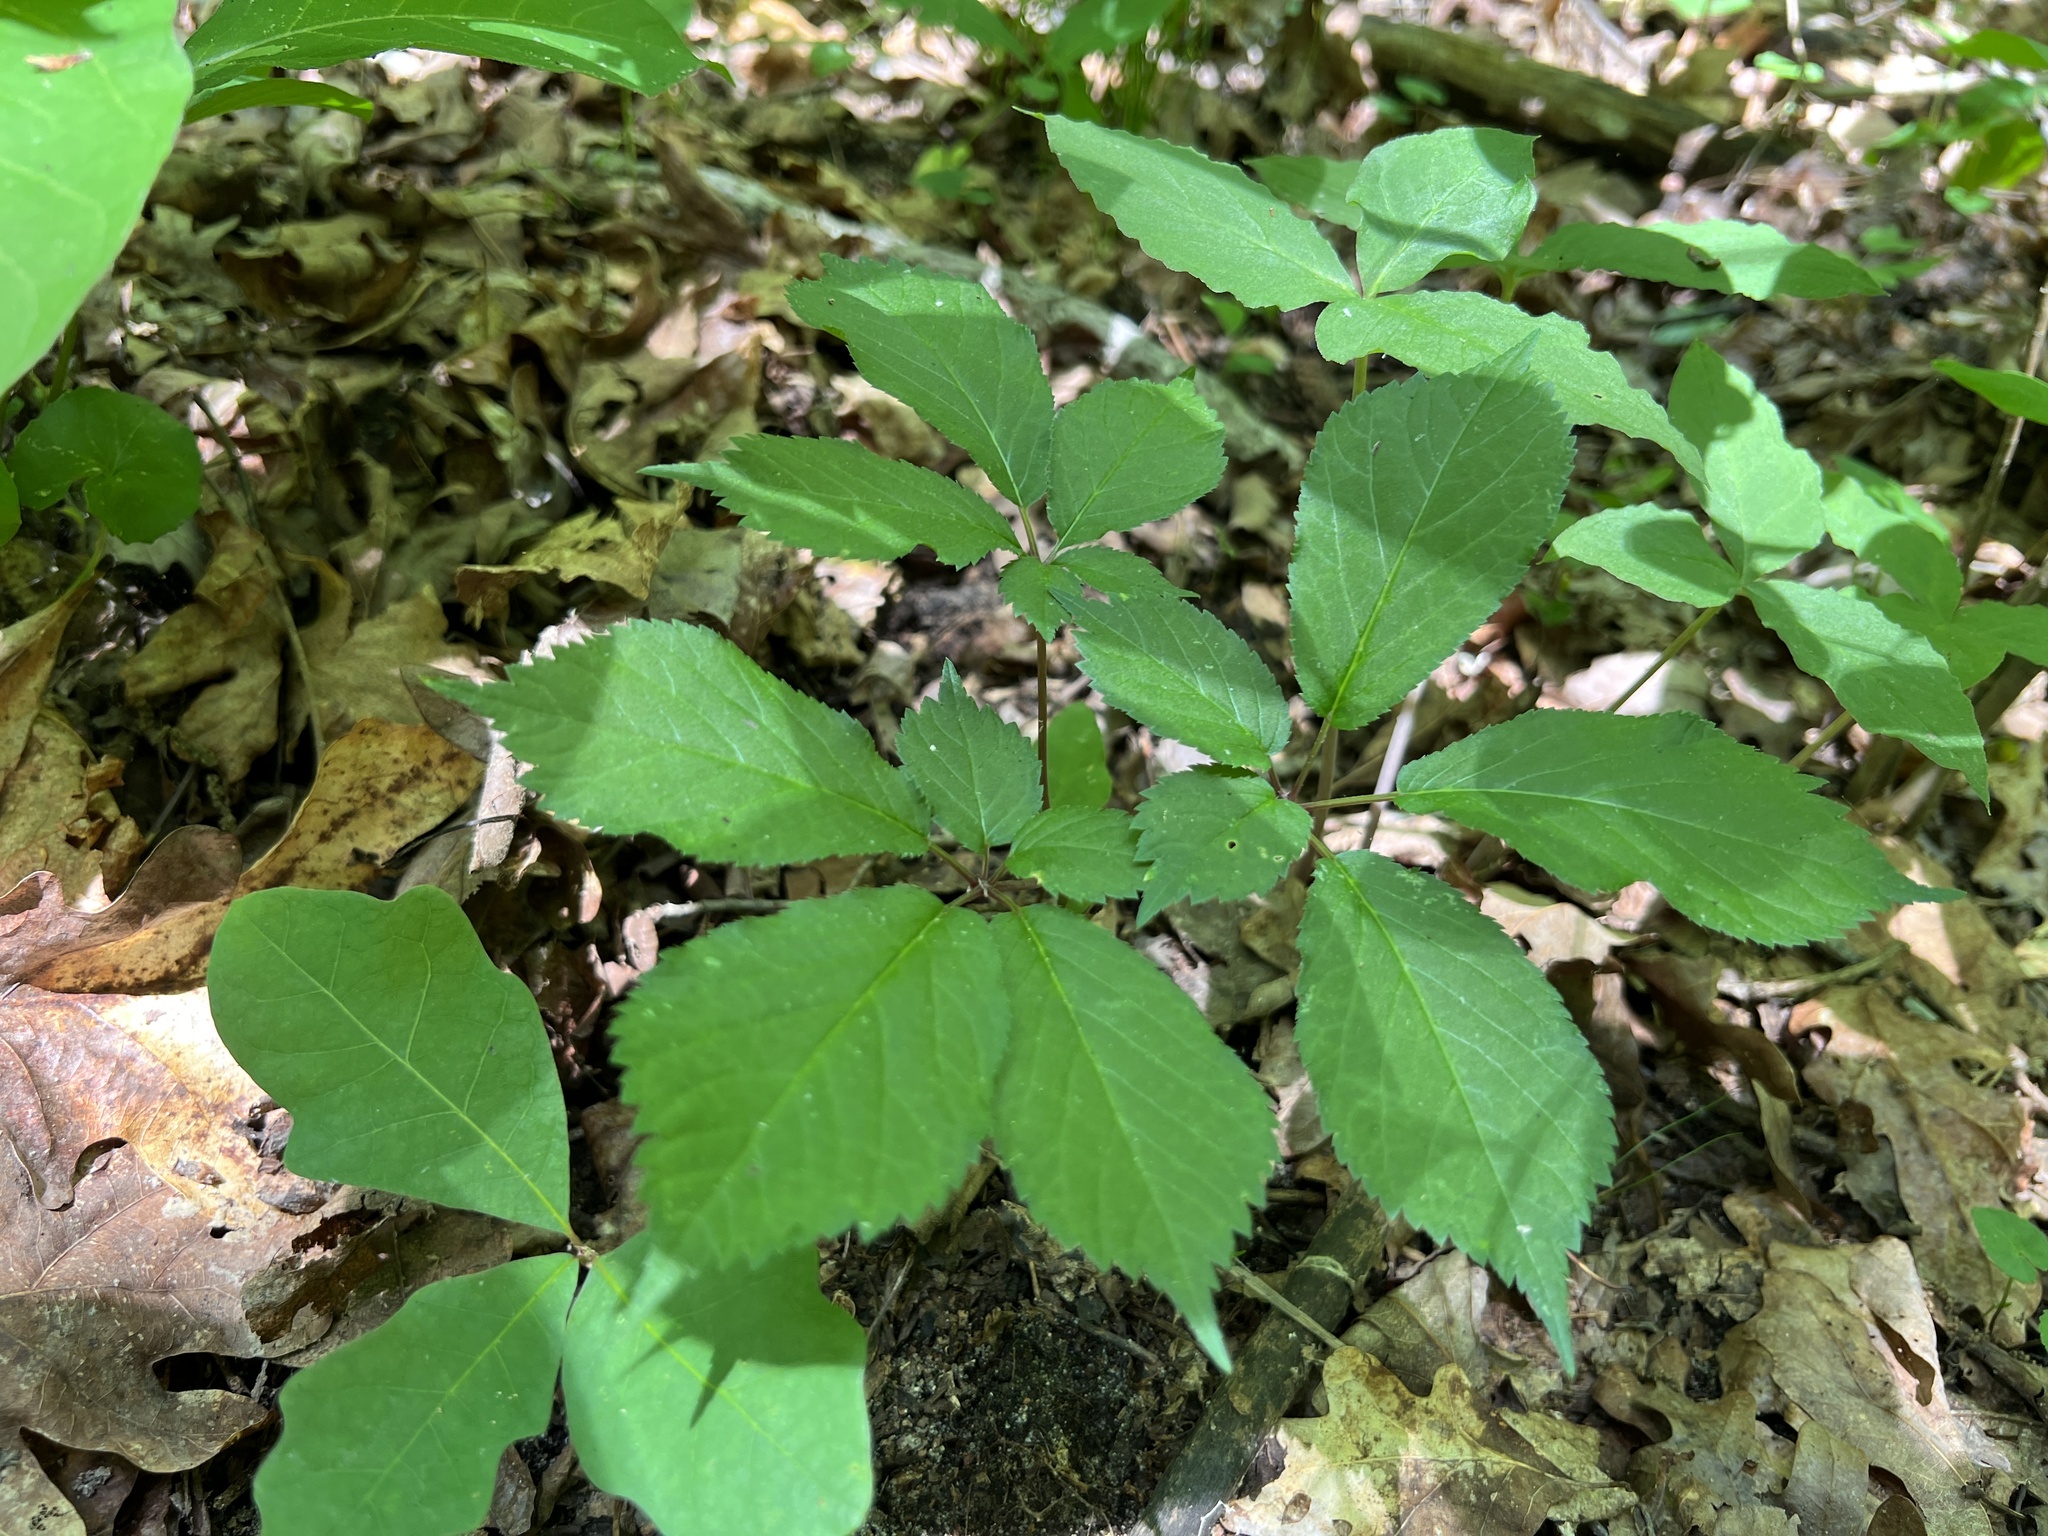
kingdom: Plantae
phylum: Tracheophyta
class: Magnoliopsida
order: Apiales
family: Araliaceae
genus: Panax
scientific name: Panax quinquefolius
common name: American ginseng
